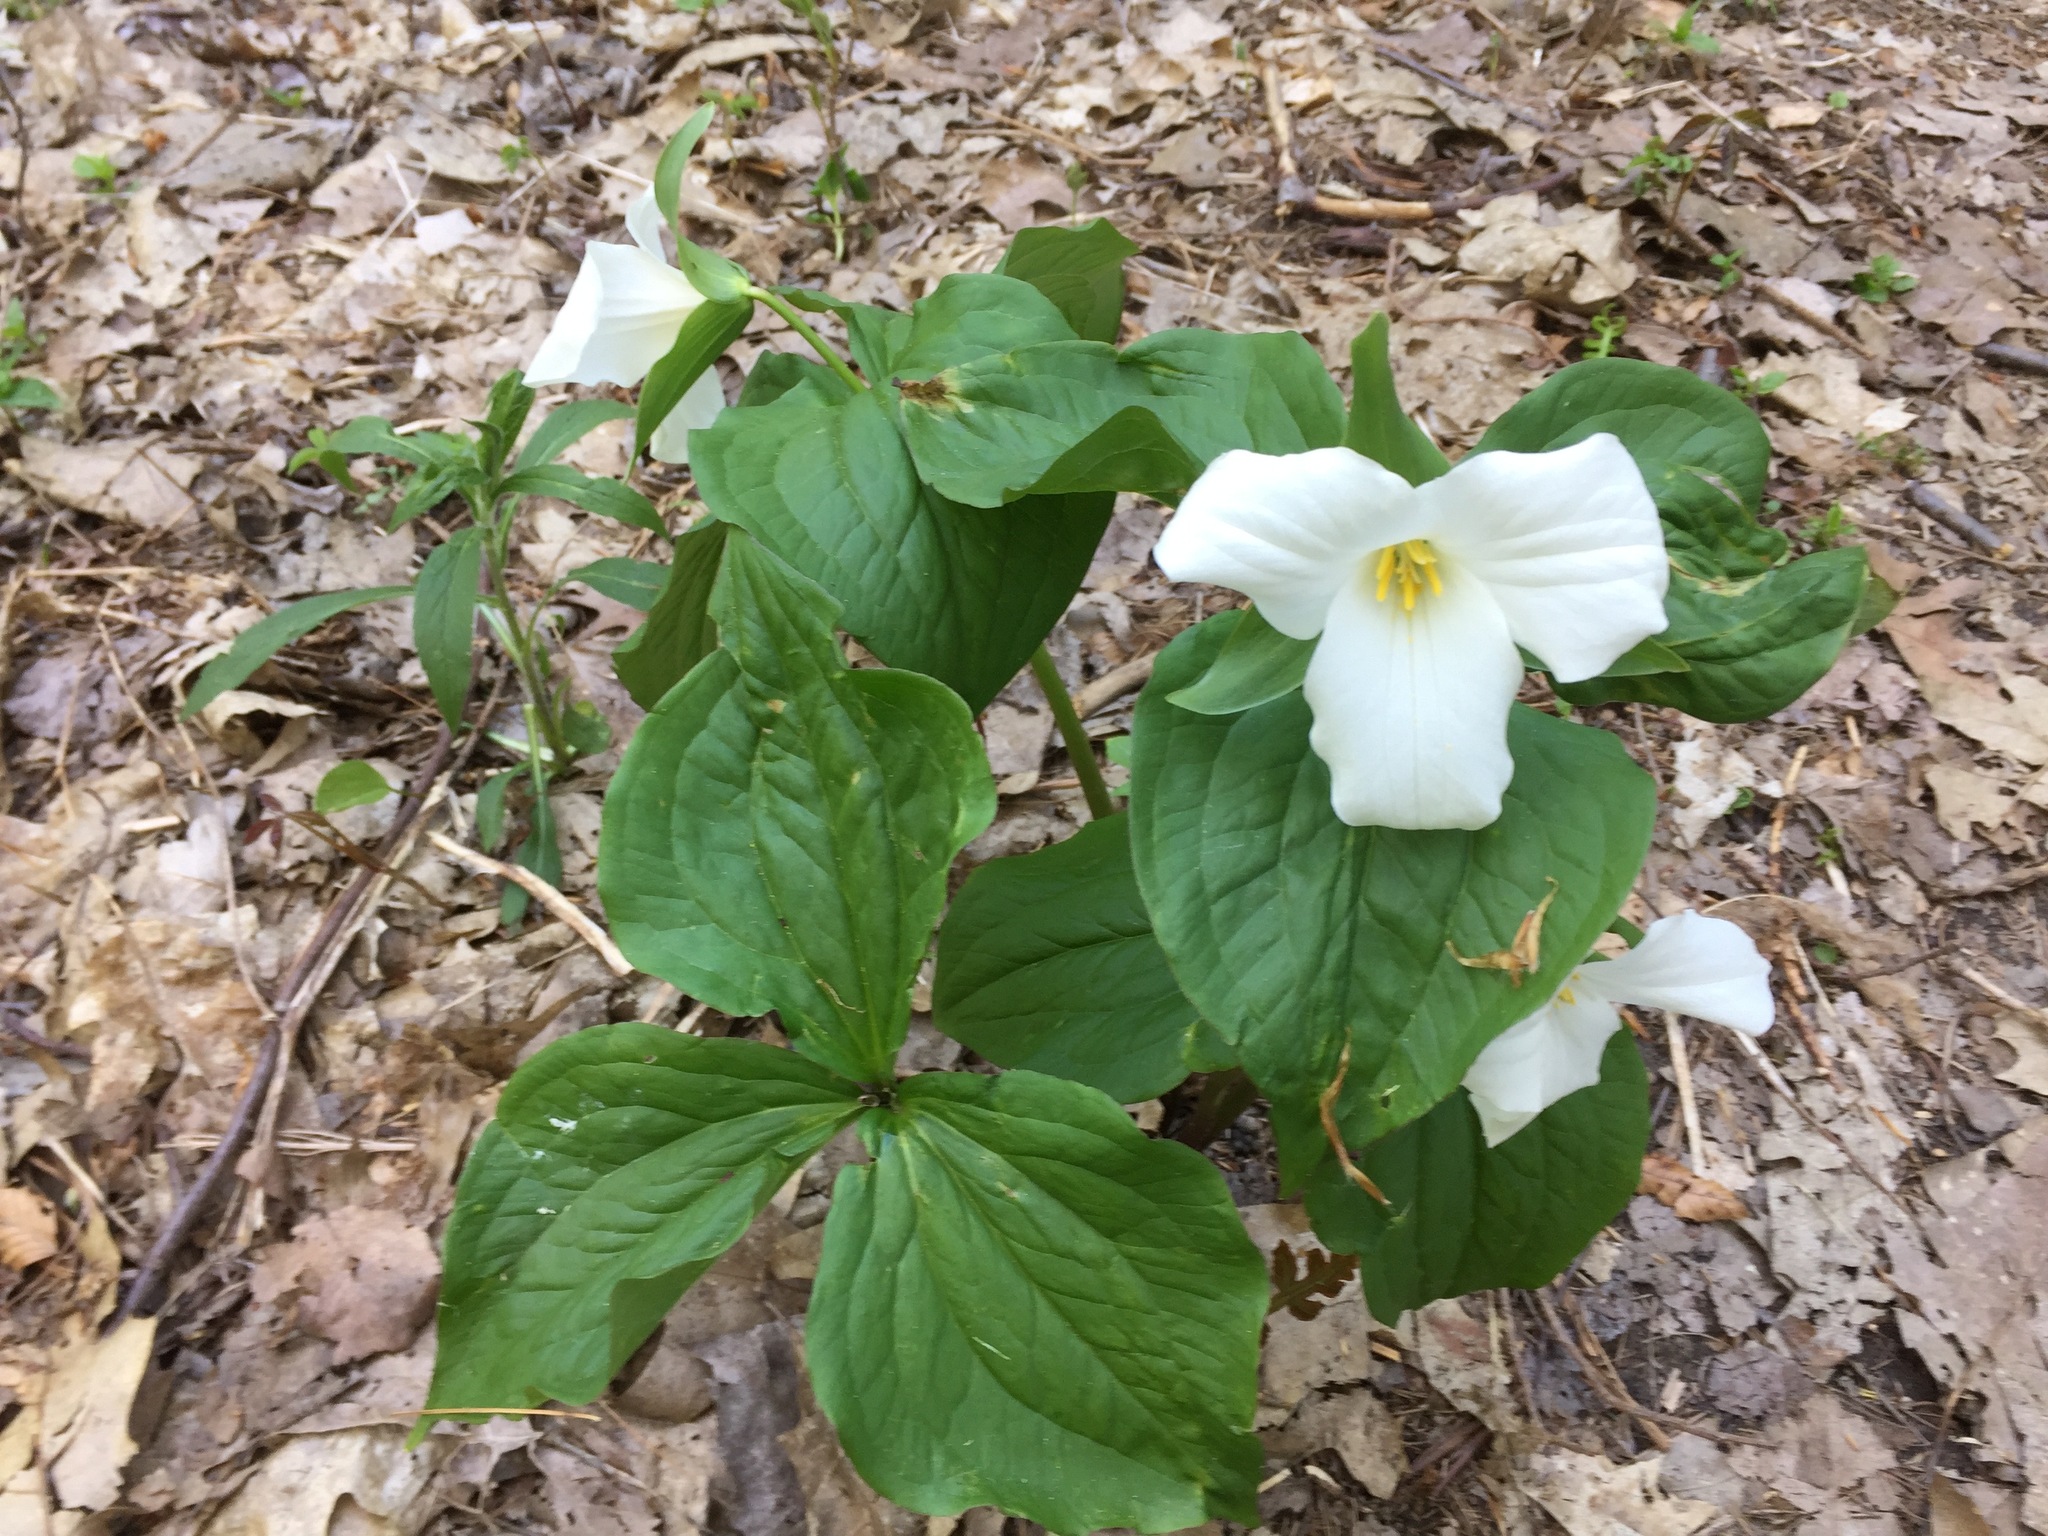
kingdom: Plantae
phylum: Tracheophyta
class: Liliopsida
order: Liliales
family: Melanthiaceae
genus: Trillium
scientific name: Trillium grandiflorum
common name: Great white trillium
